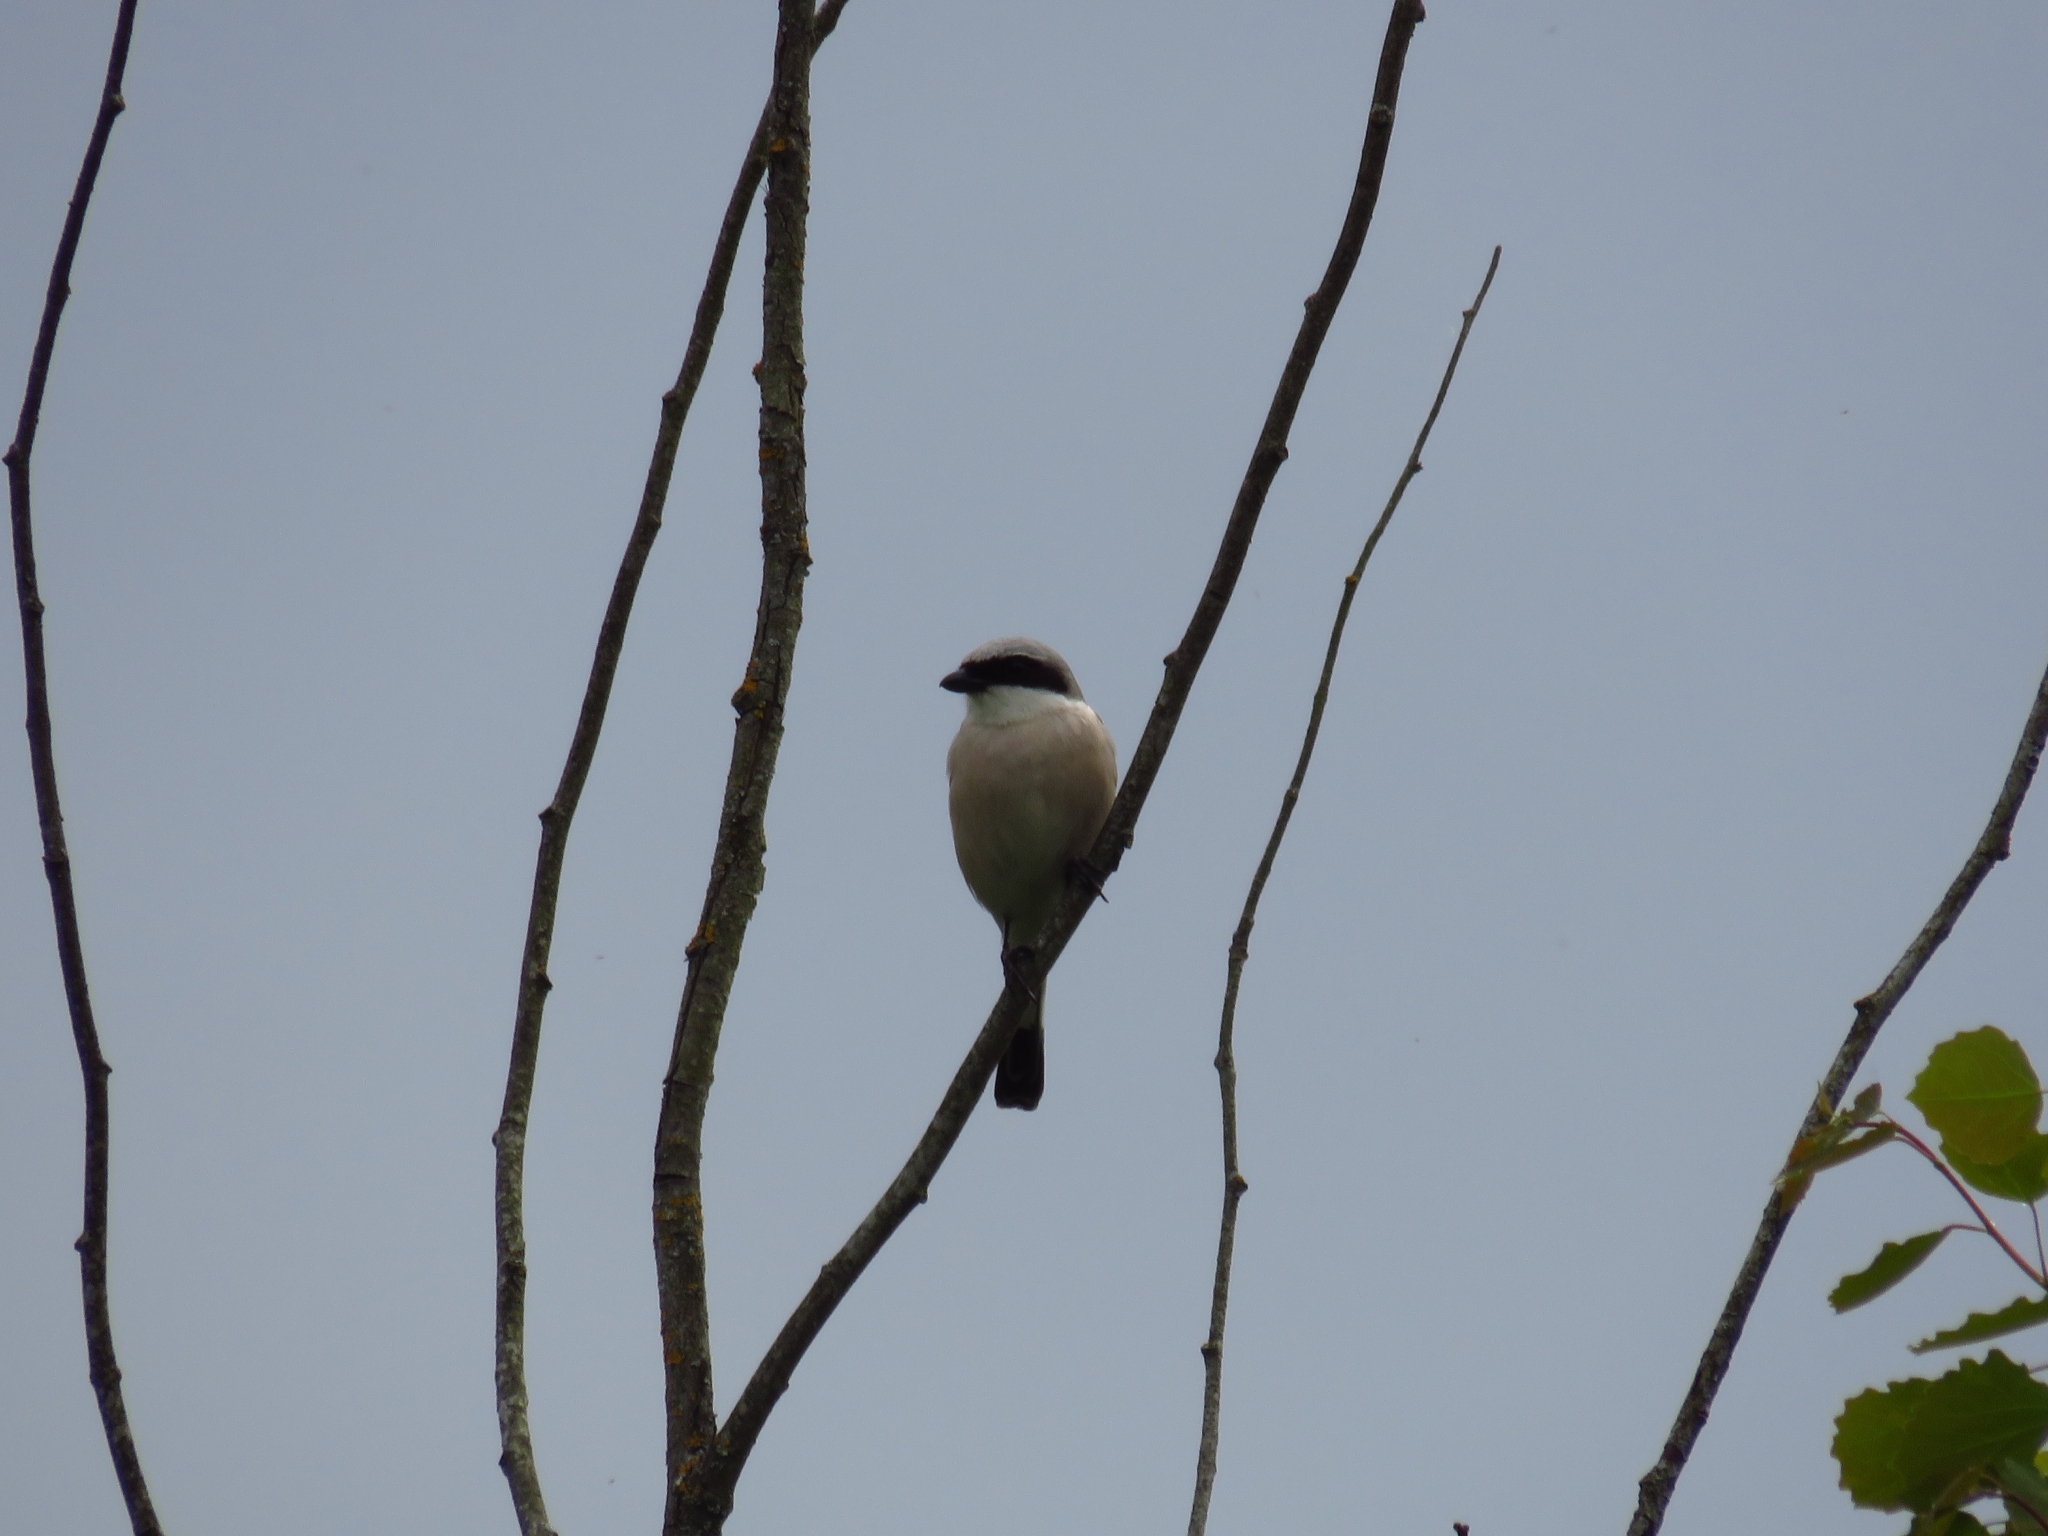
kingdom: Animalia
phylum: Chordata
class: Aves
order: Passeriformes
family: Laniidae
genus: Lanius
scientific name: Lanius collurio
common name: Red-backed shrike
